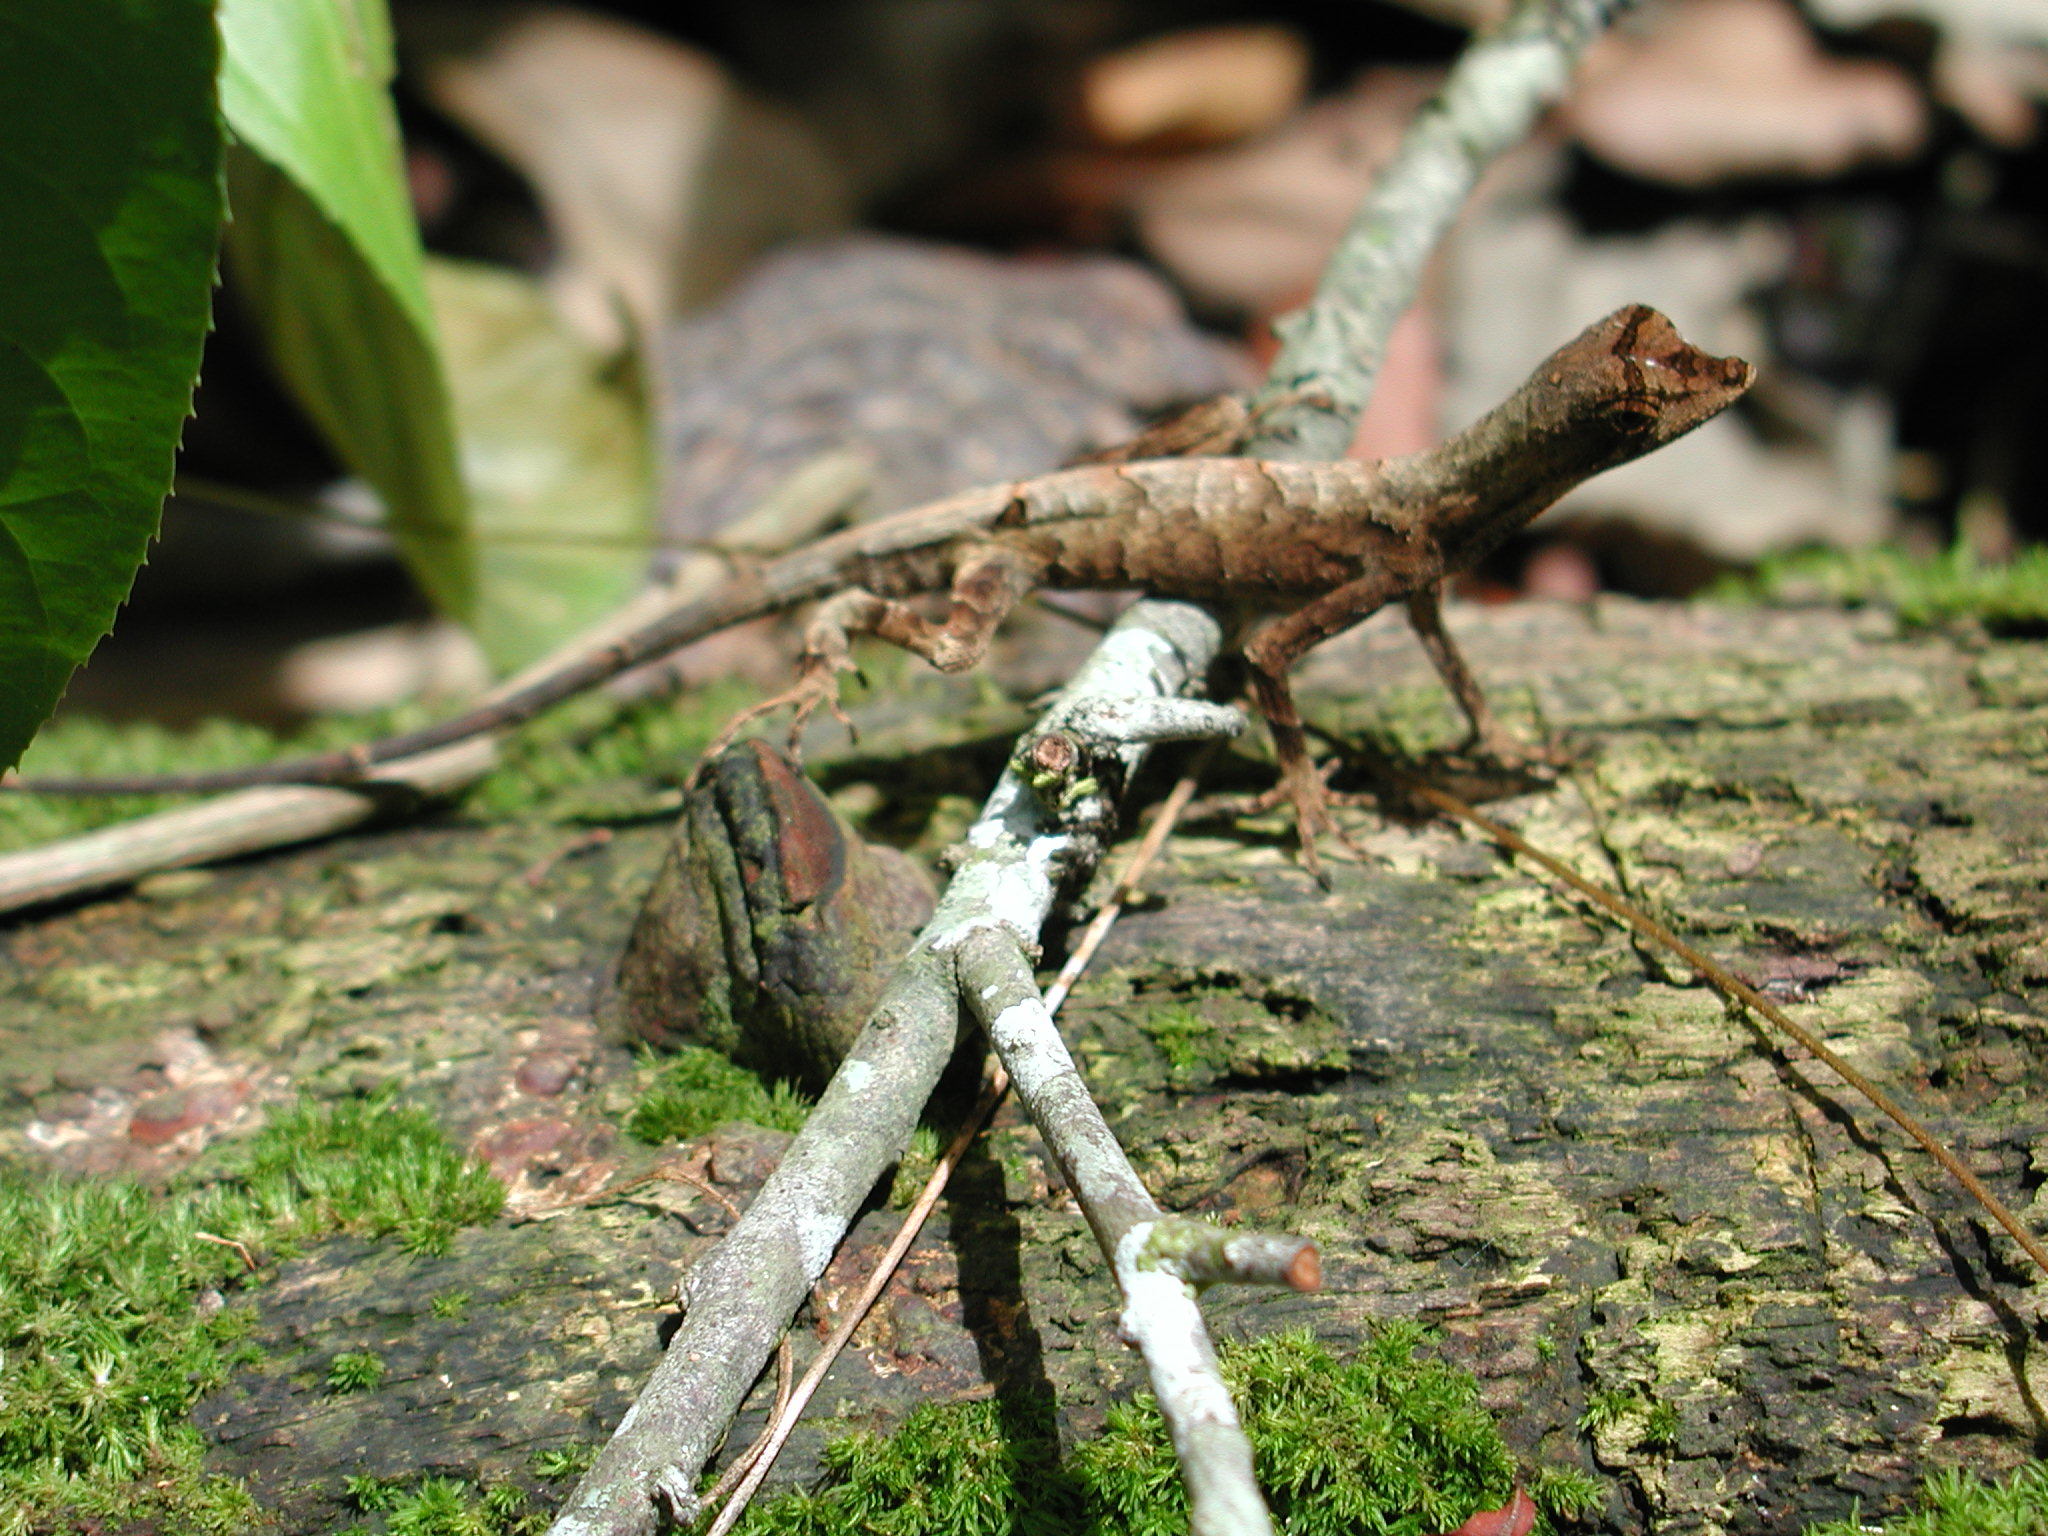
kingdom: Animalia
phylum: Chordata
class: Squamata
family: Dactyloidae
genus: Anolis
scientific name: Anolis tandai
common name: Tandai’s anole
